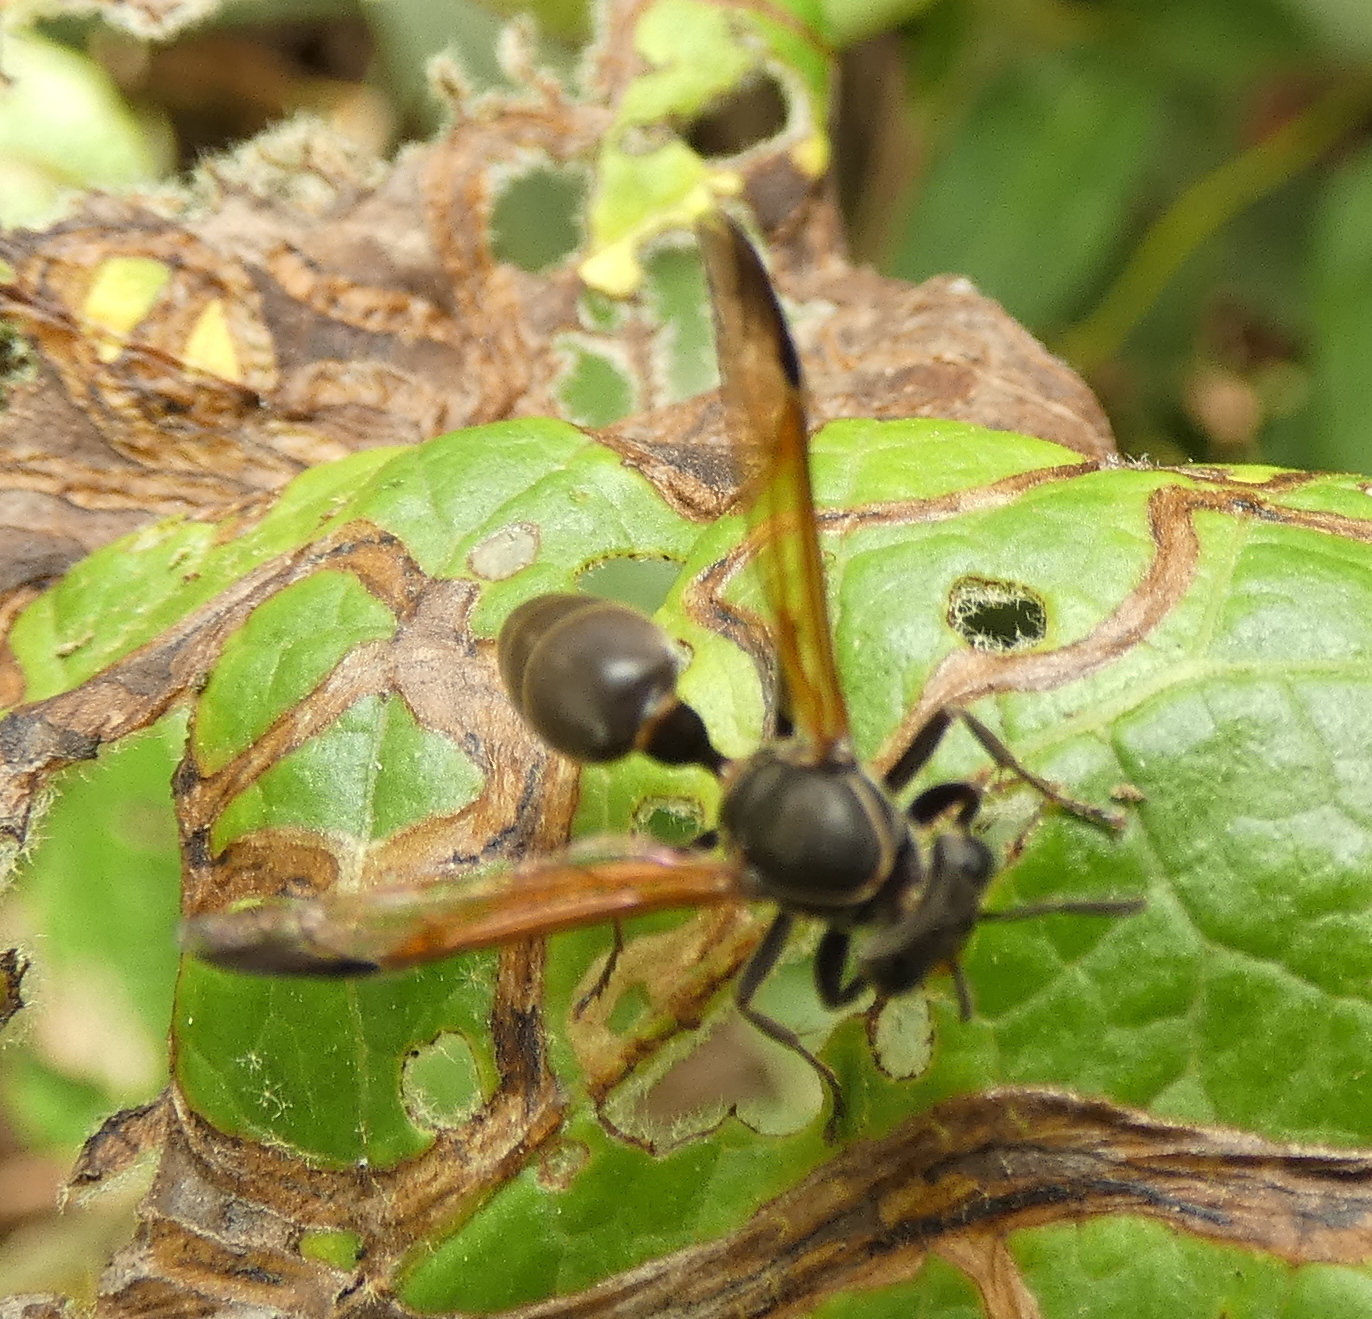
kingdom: Animalia
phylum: Arthropoda
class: Insecta
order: Hymenoptera
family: Eumenidae
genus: Polybia
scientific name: Polybia rejecta
